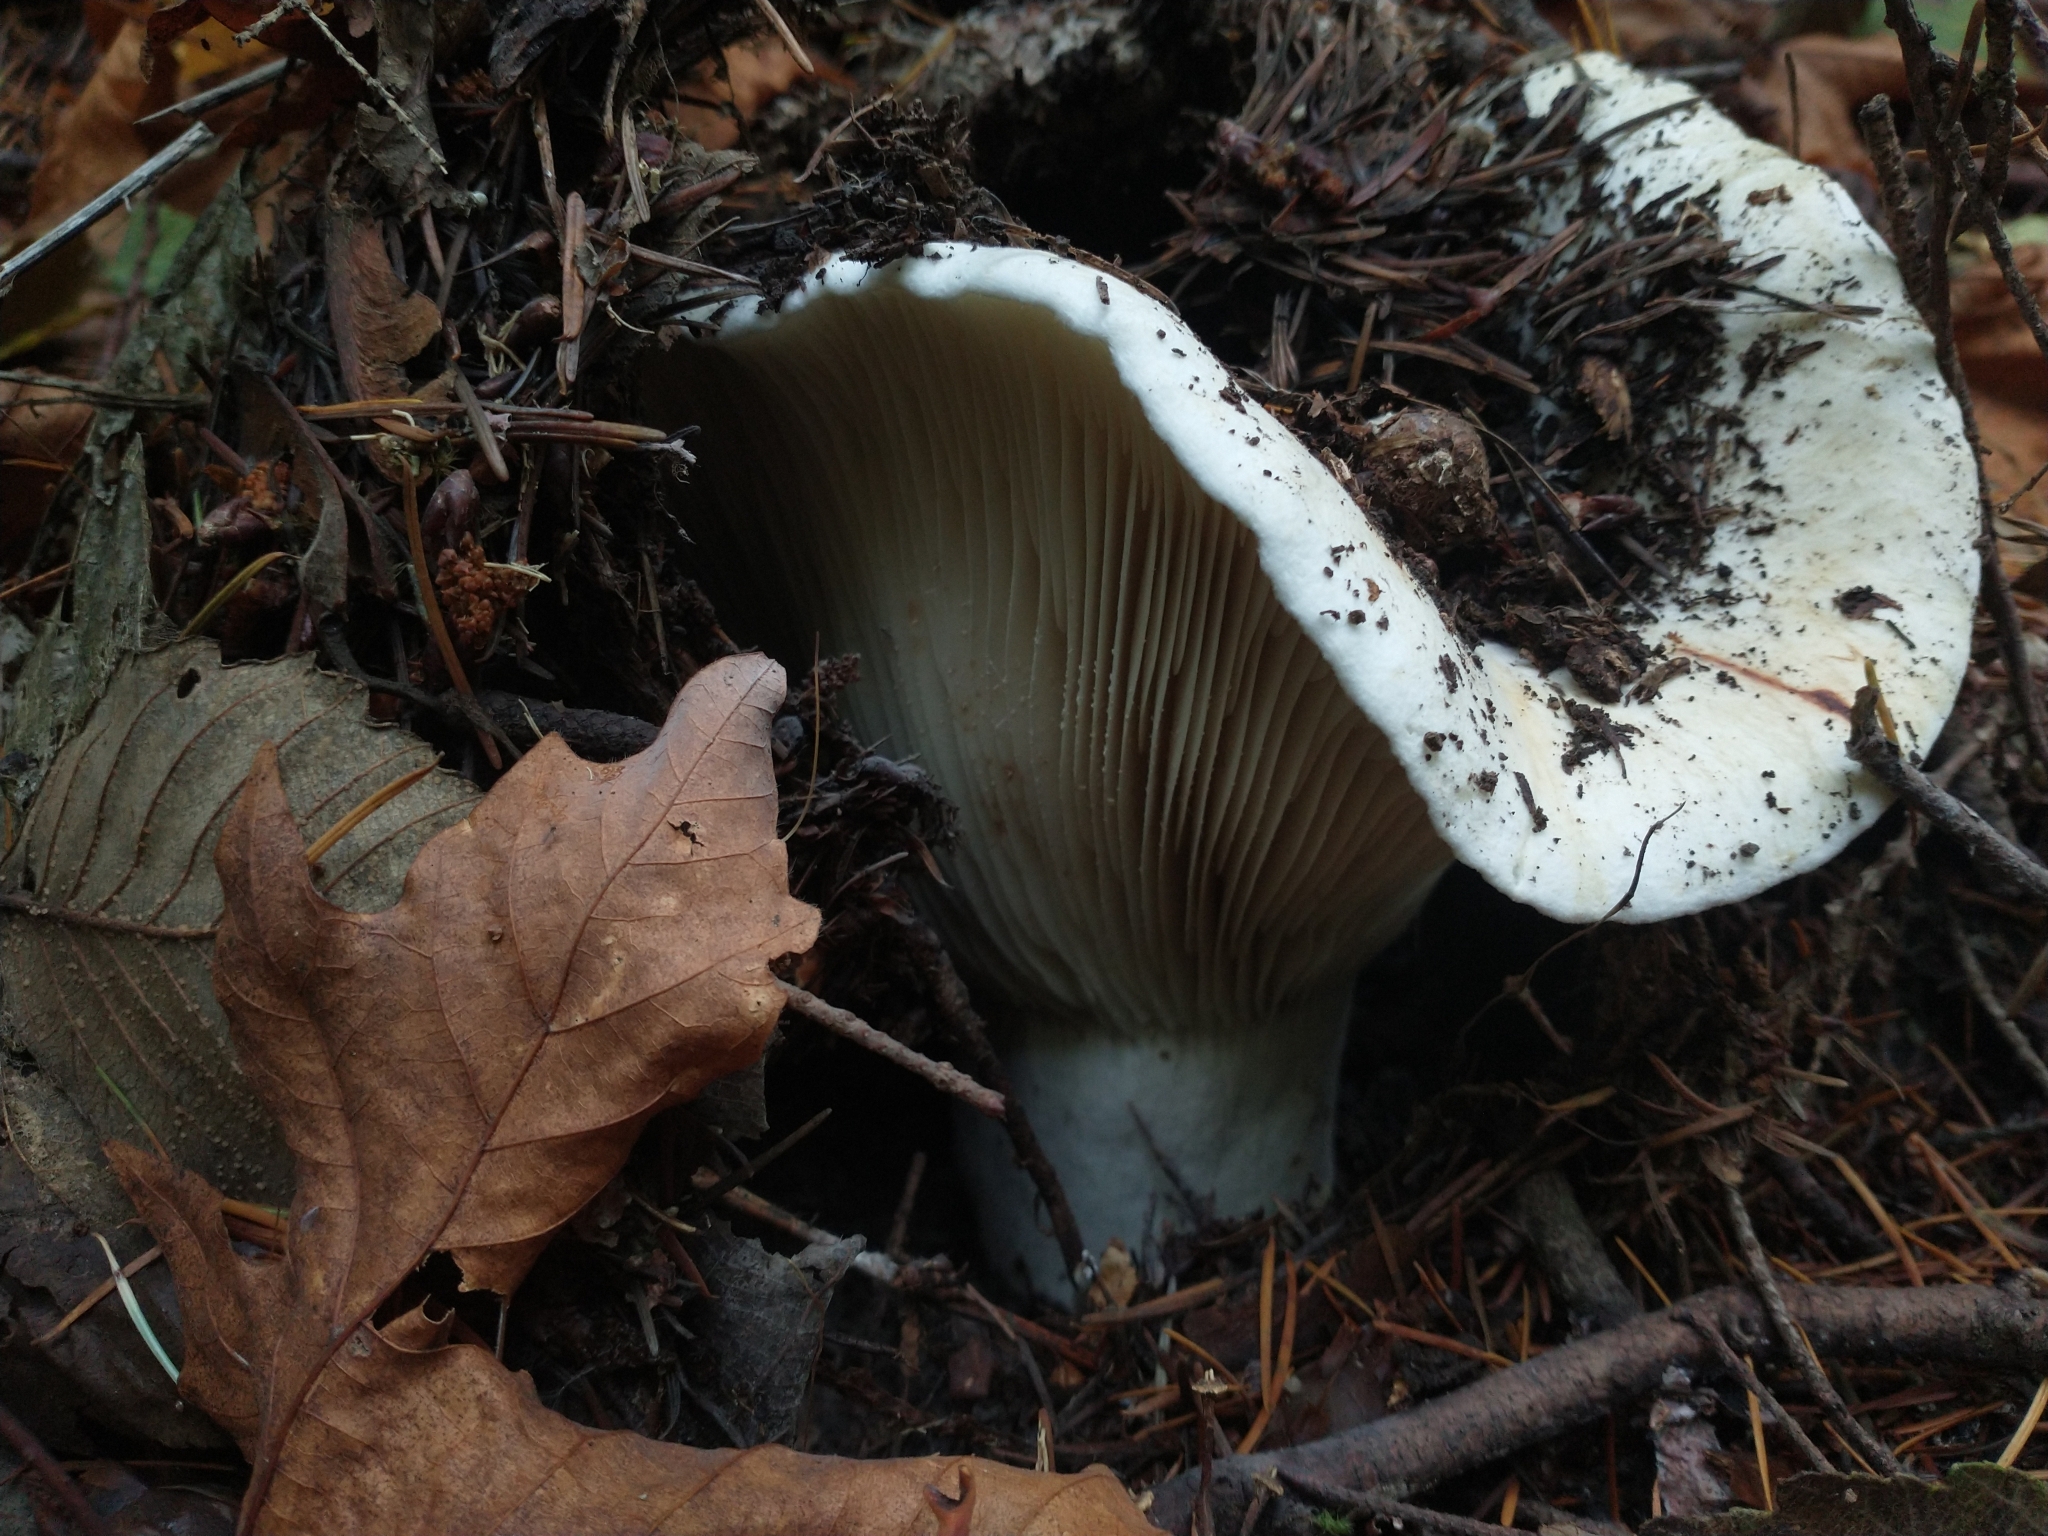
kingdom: Fungi
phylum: Basidiomycota
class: Agaricomycetes
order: Russulales
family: Russulaceae
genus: Russula
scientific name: Russula brevipes
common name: Short-stemmed russula
